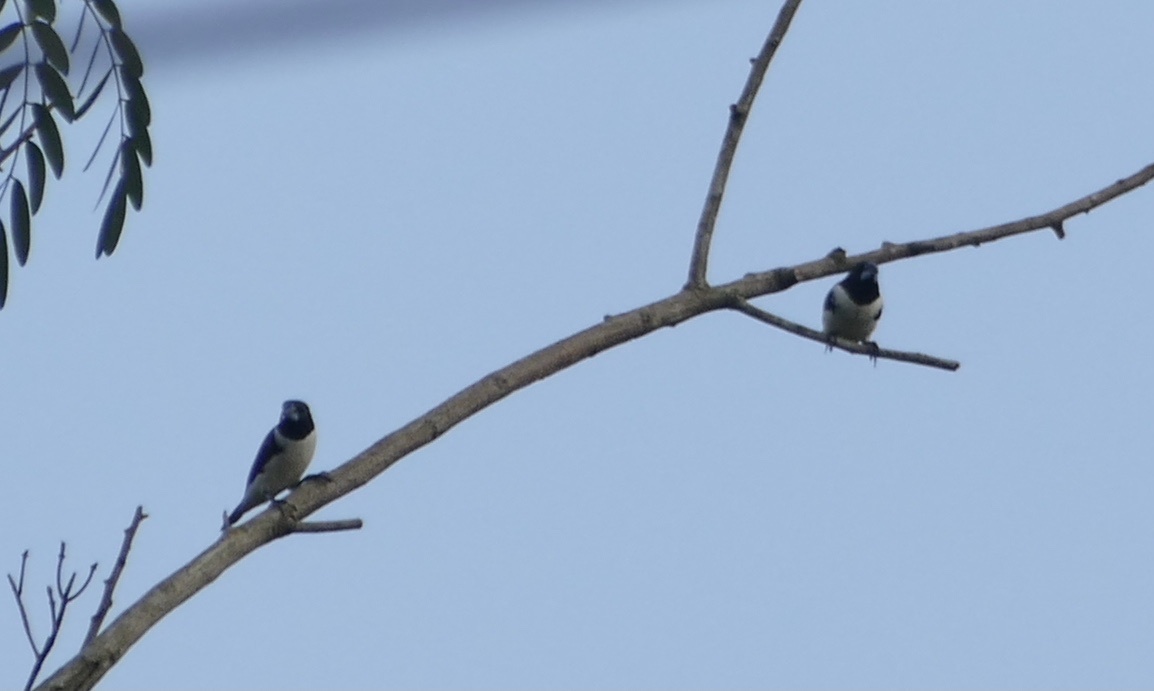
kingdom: Animalia
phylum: Chordata
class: Aves
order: Passeriformes
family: Estrildidae
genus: Lonchura
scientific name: Lonchura fringilloides
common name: Magpie mannikin
